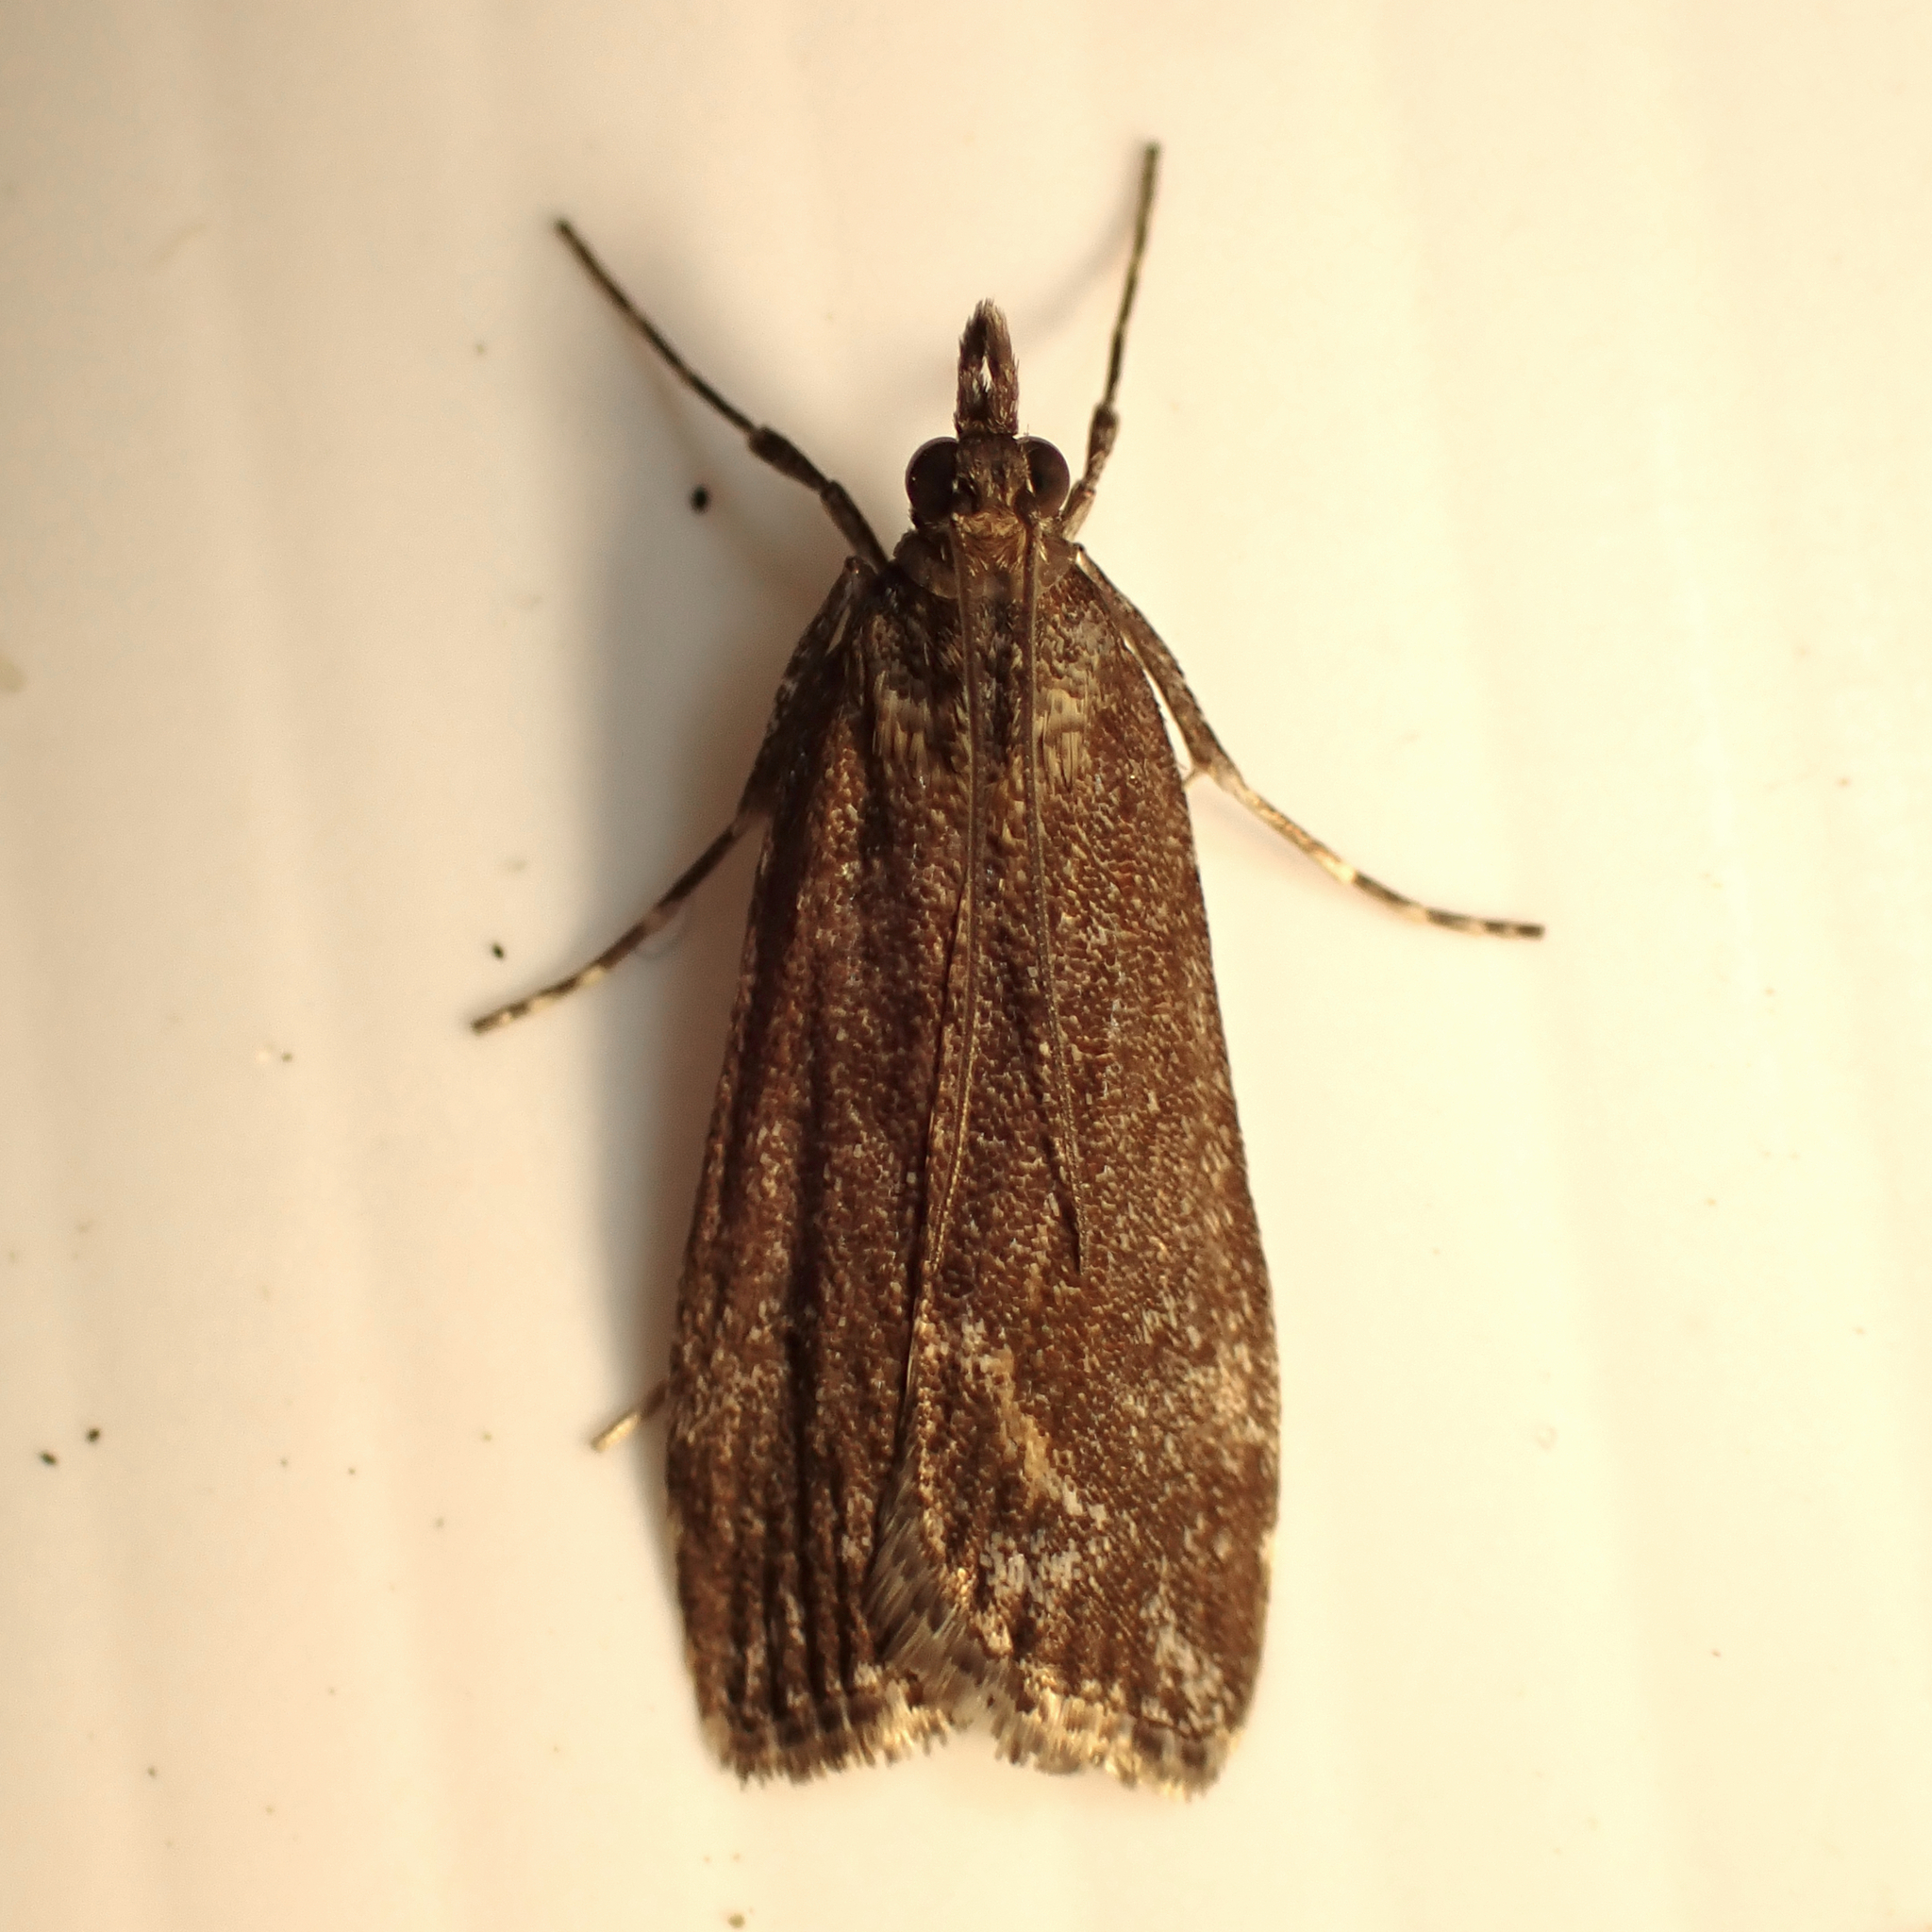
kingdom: Animalia
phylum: Arthropoda
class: Insecta
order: Lepidoptera
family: Crambidae
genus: Eudonia
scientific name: Eudonia submarginalis
